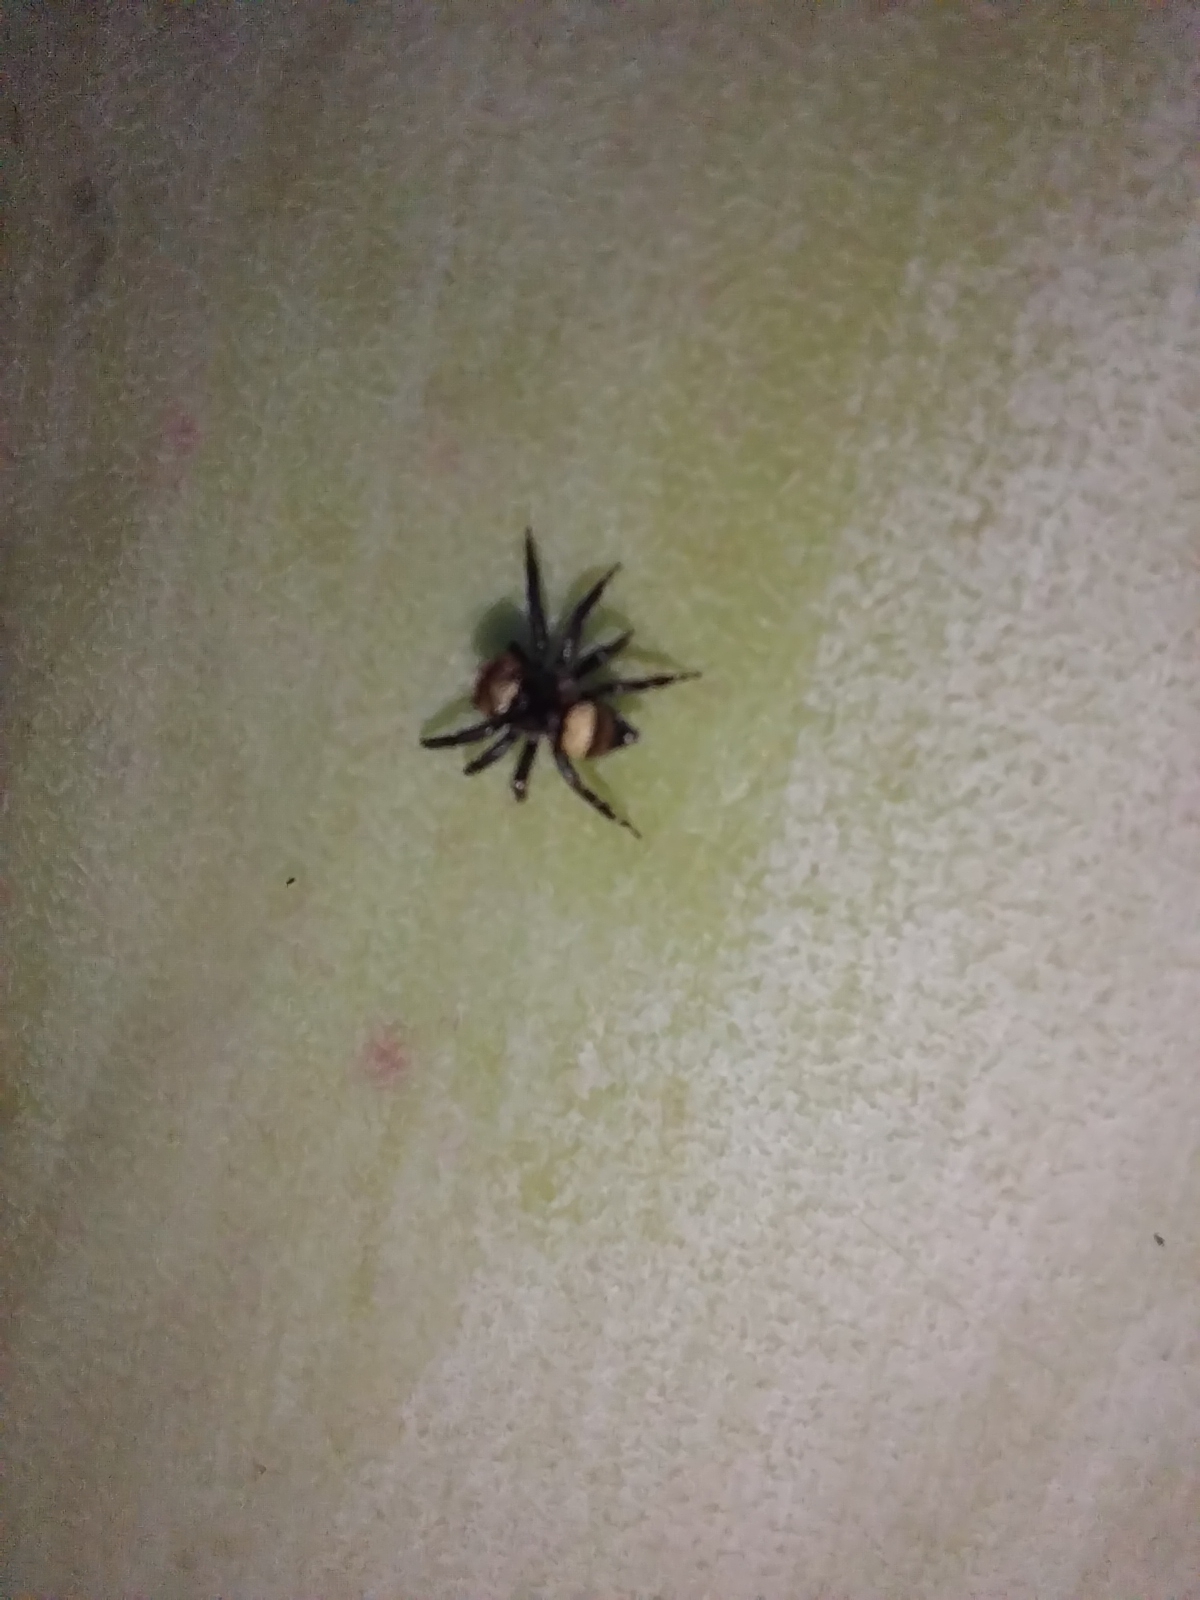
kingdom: Animalia
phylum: Arthropoda
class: Arachnida
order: Araneae
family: Salticidae
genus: Thorelliola
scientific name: Thorelliola ensifera
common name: Jumping spider
